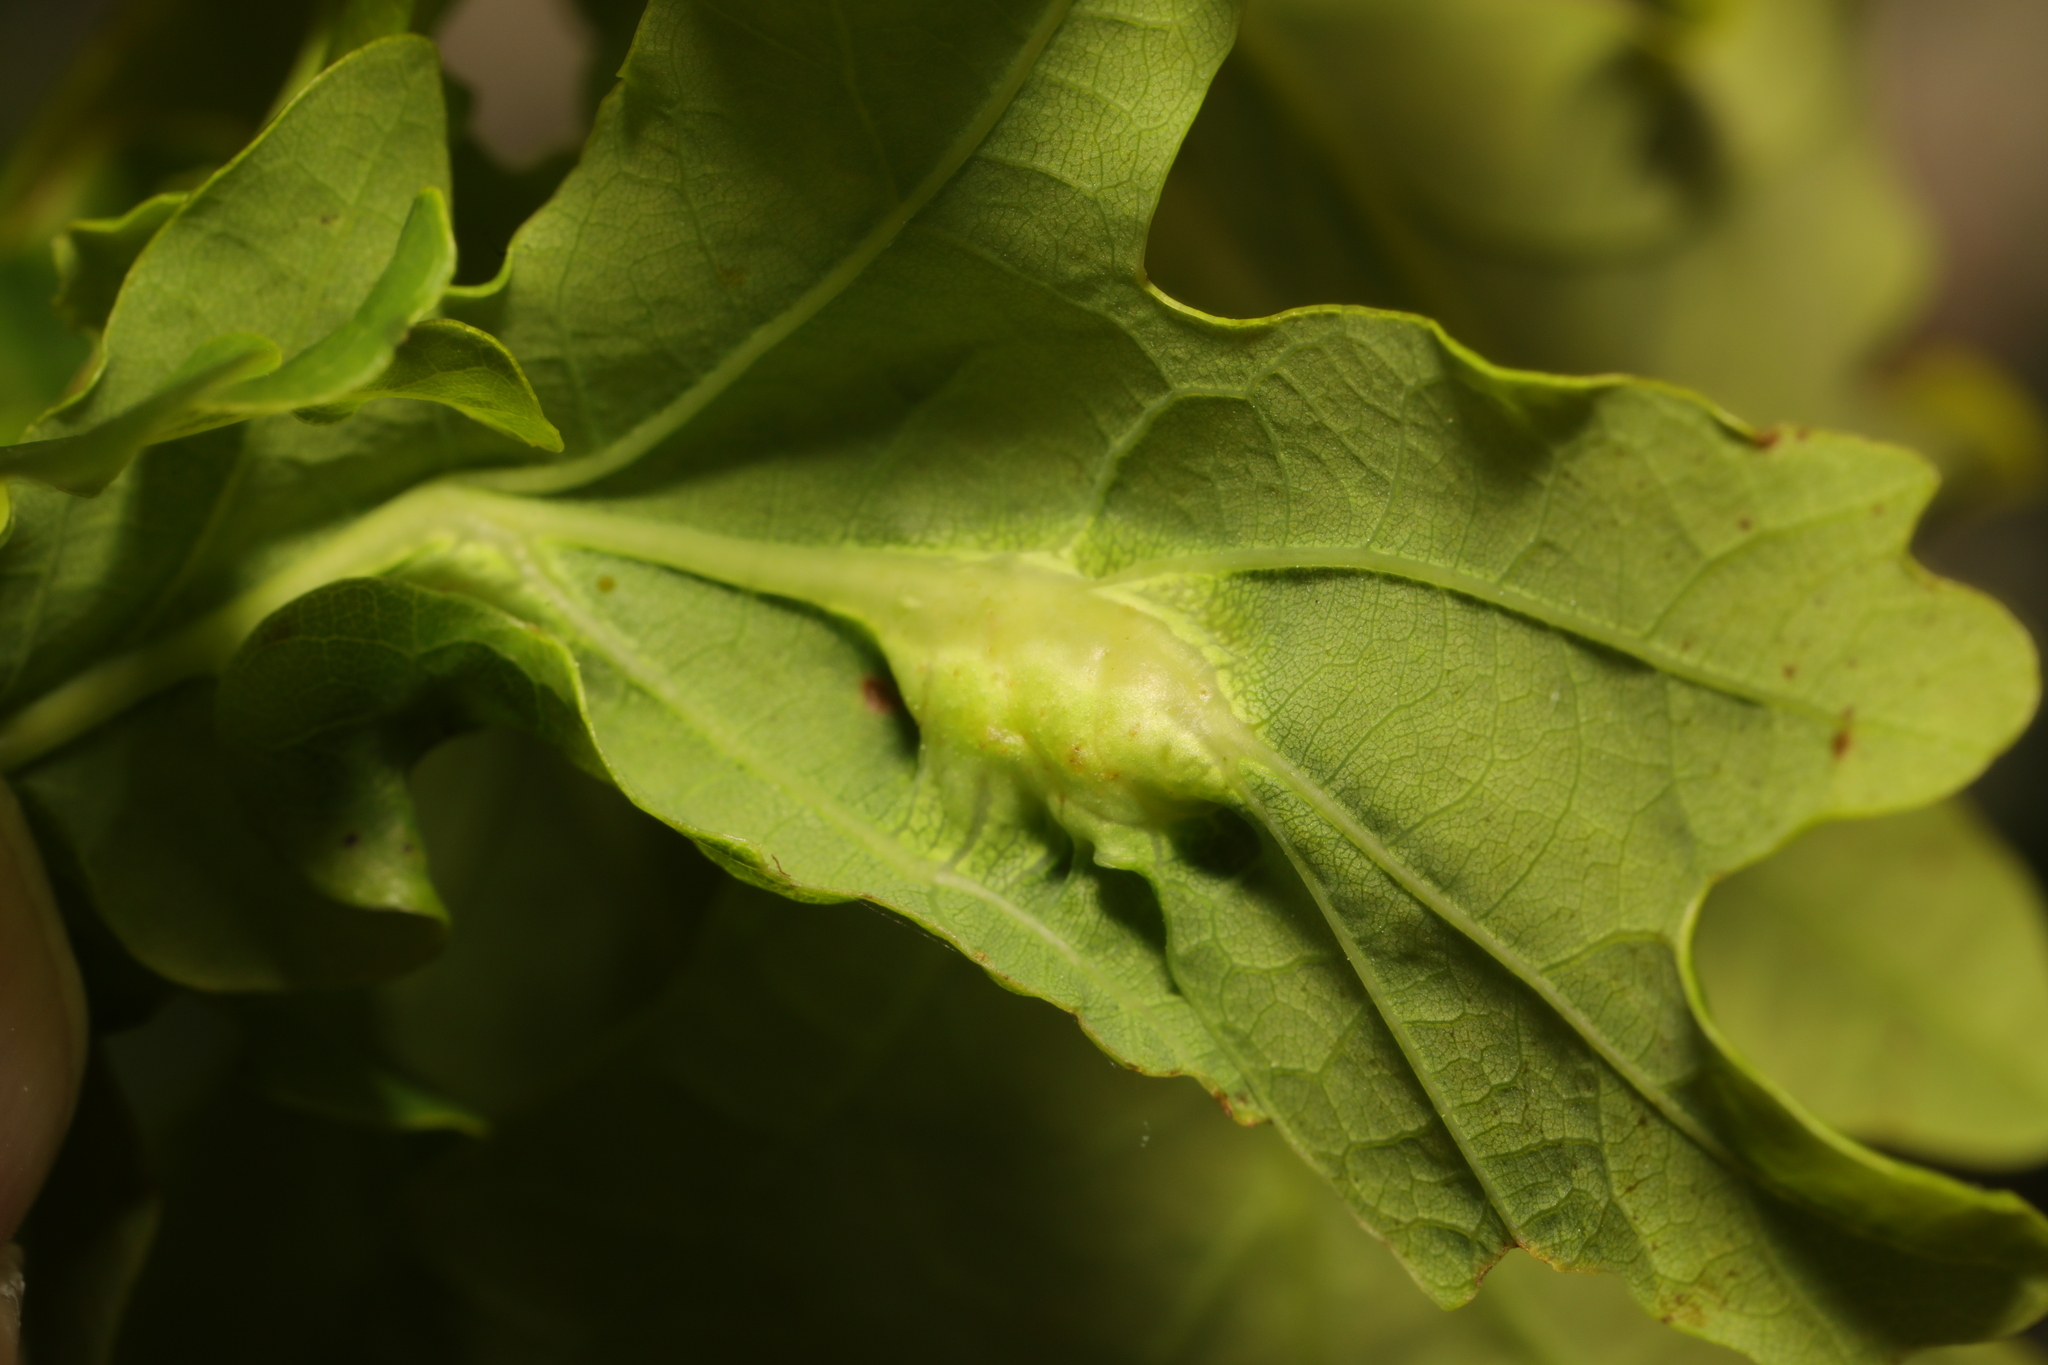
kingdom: Animalia
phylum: Arthropoda
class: Insecta
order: Hymenoptera
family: Cynipidae
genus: Andricus
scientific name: Andricus curvator
